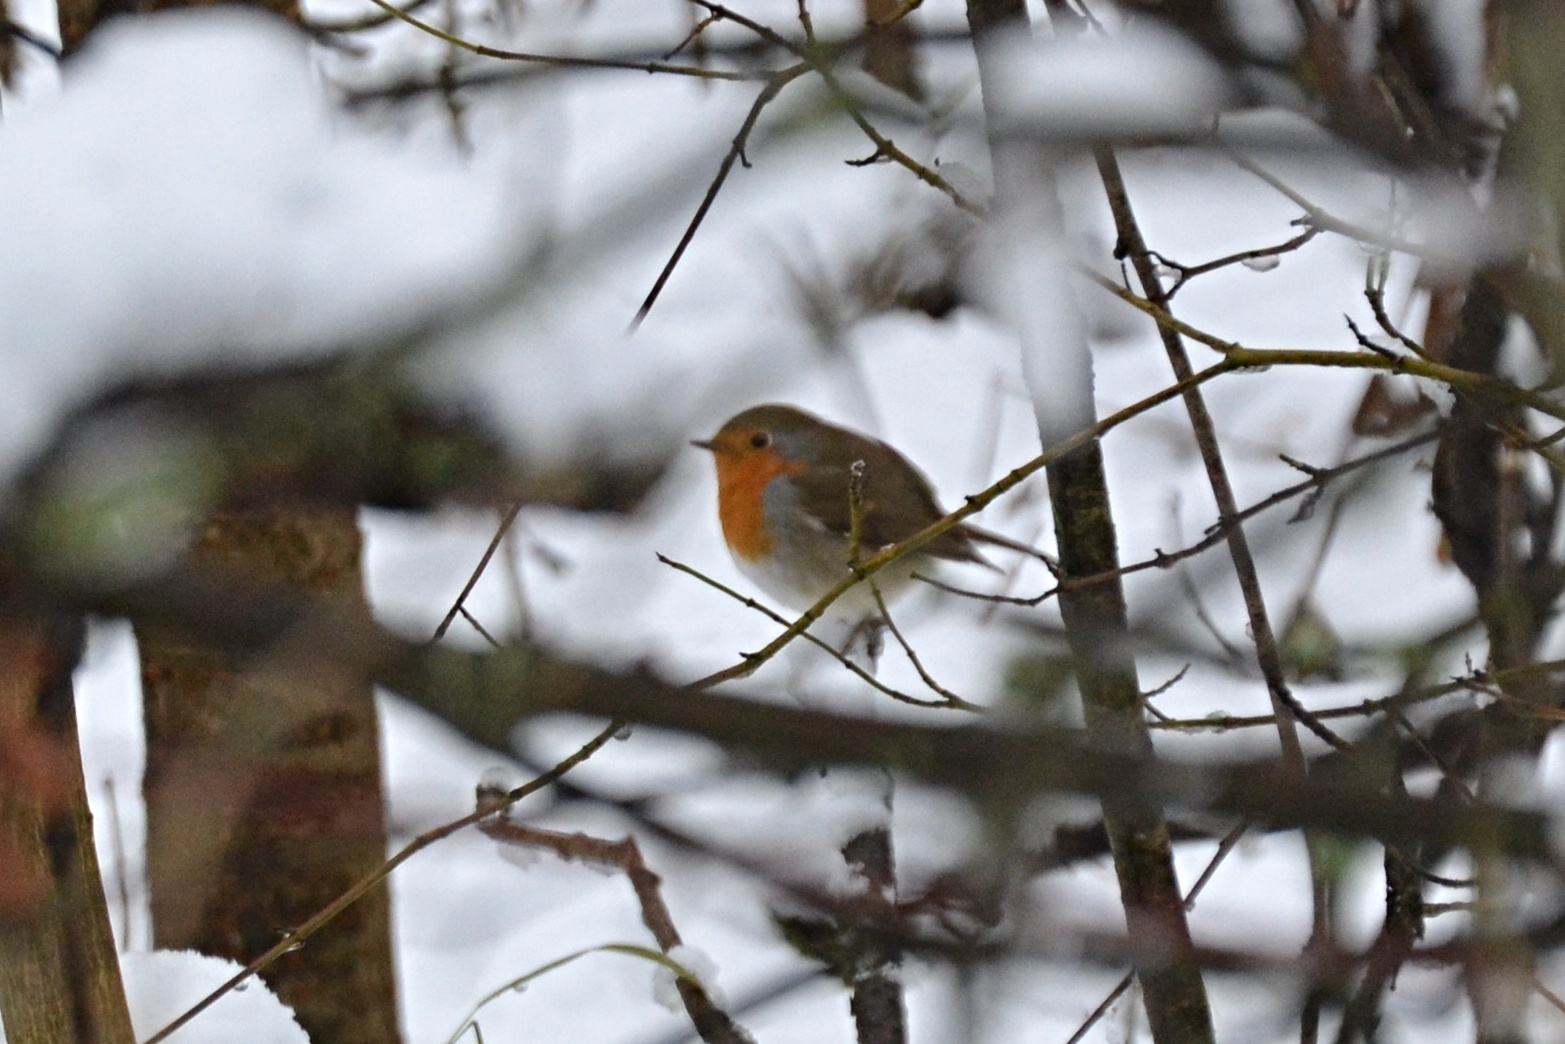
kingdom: Animalia
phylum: Chordata
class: Aves
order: Passeriformes
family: Muscicapidae
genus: Erithacus
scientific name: Erithacus rubecula
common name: European robin
